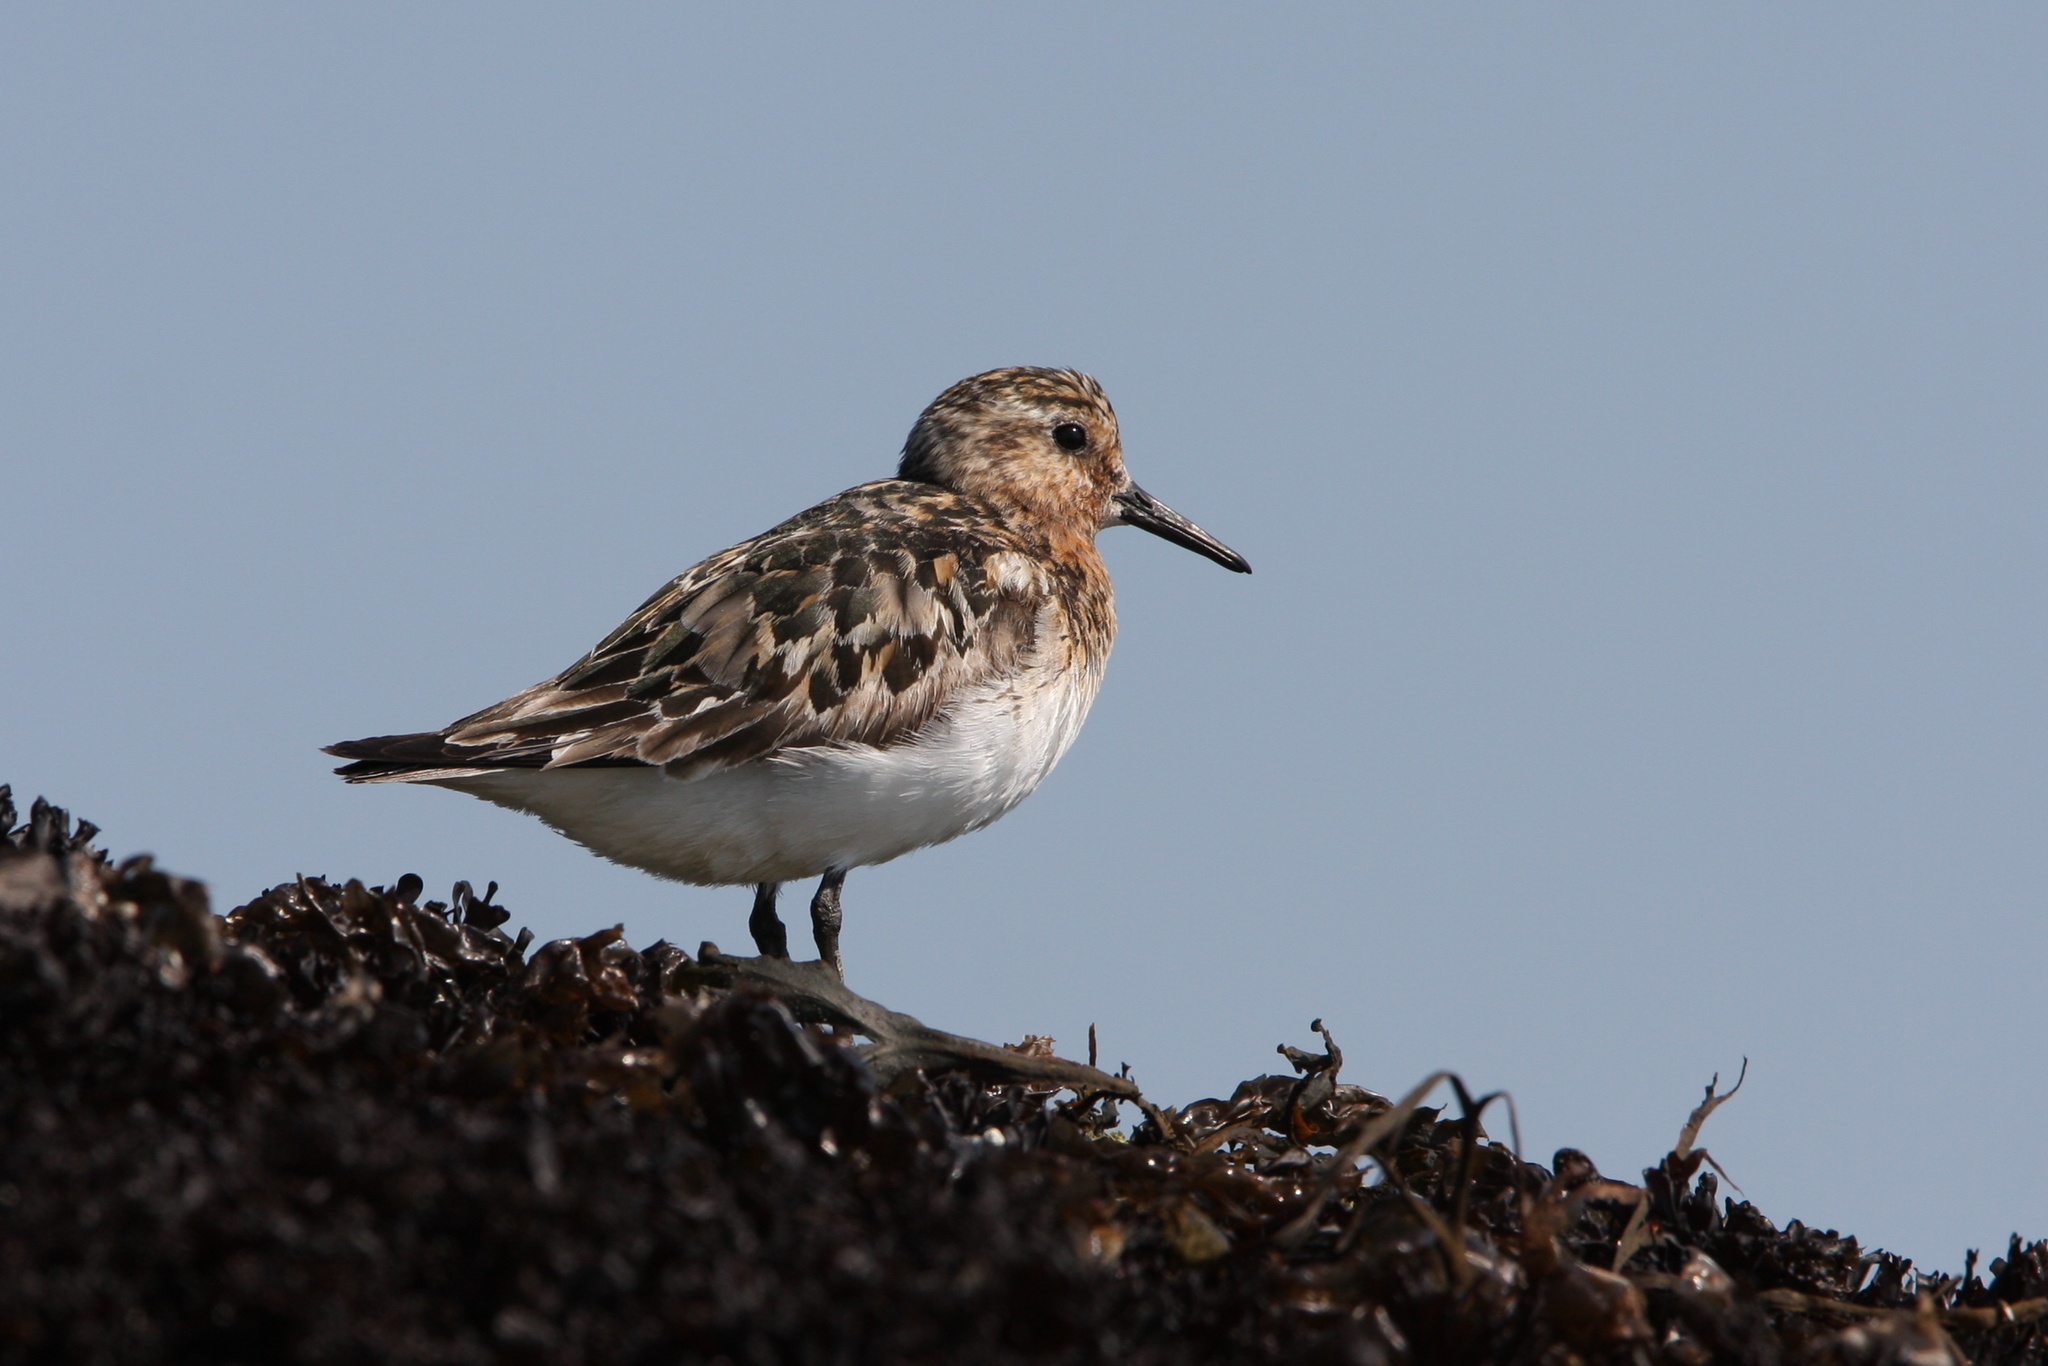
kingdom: Animalia
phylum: Chordata
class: Aves
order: Charadriiformes
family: Scolopacidae
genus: Calidris
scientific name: Calidris alba
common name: Sanderling
